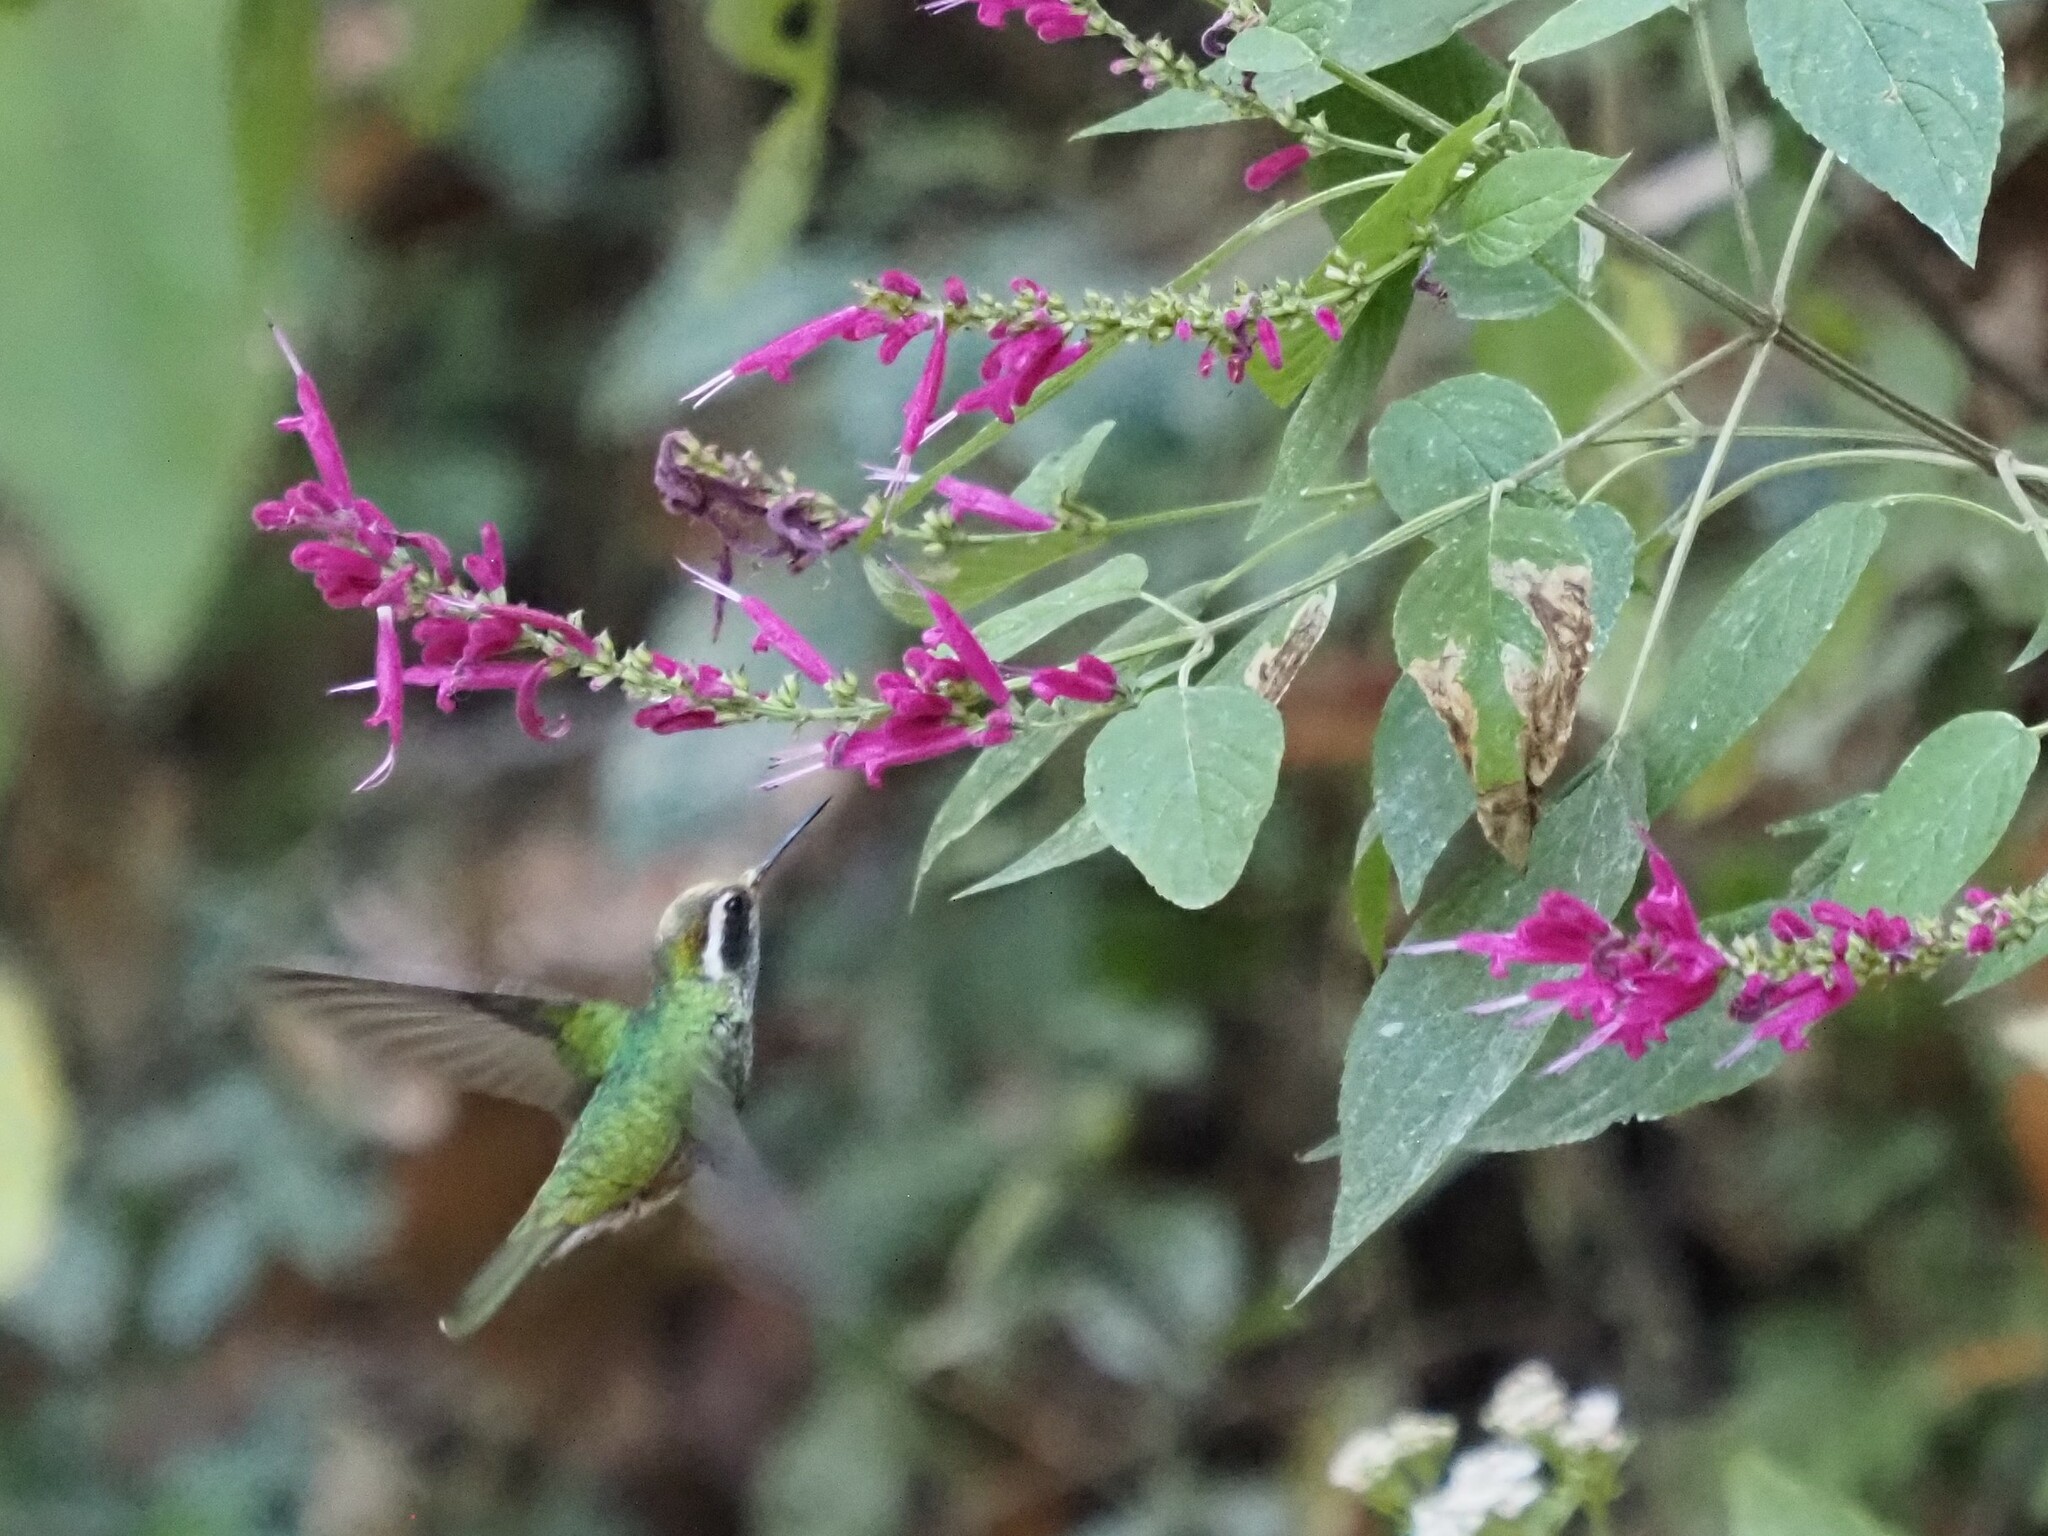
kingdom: Animalia
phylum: Chordata
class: Aves
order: Apodiformes
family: Trochilidae
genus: Basilinna
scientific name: Basilinna leucotis
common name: White-eared hummingbird
